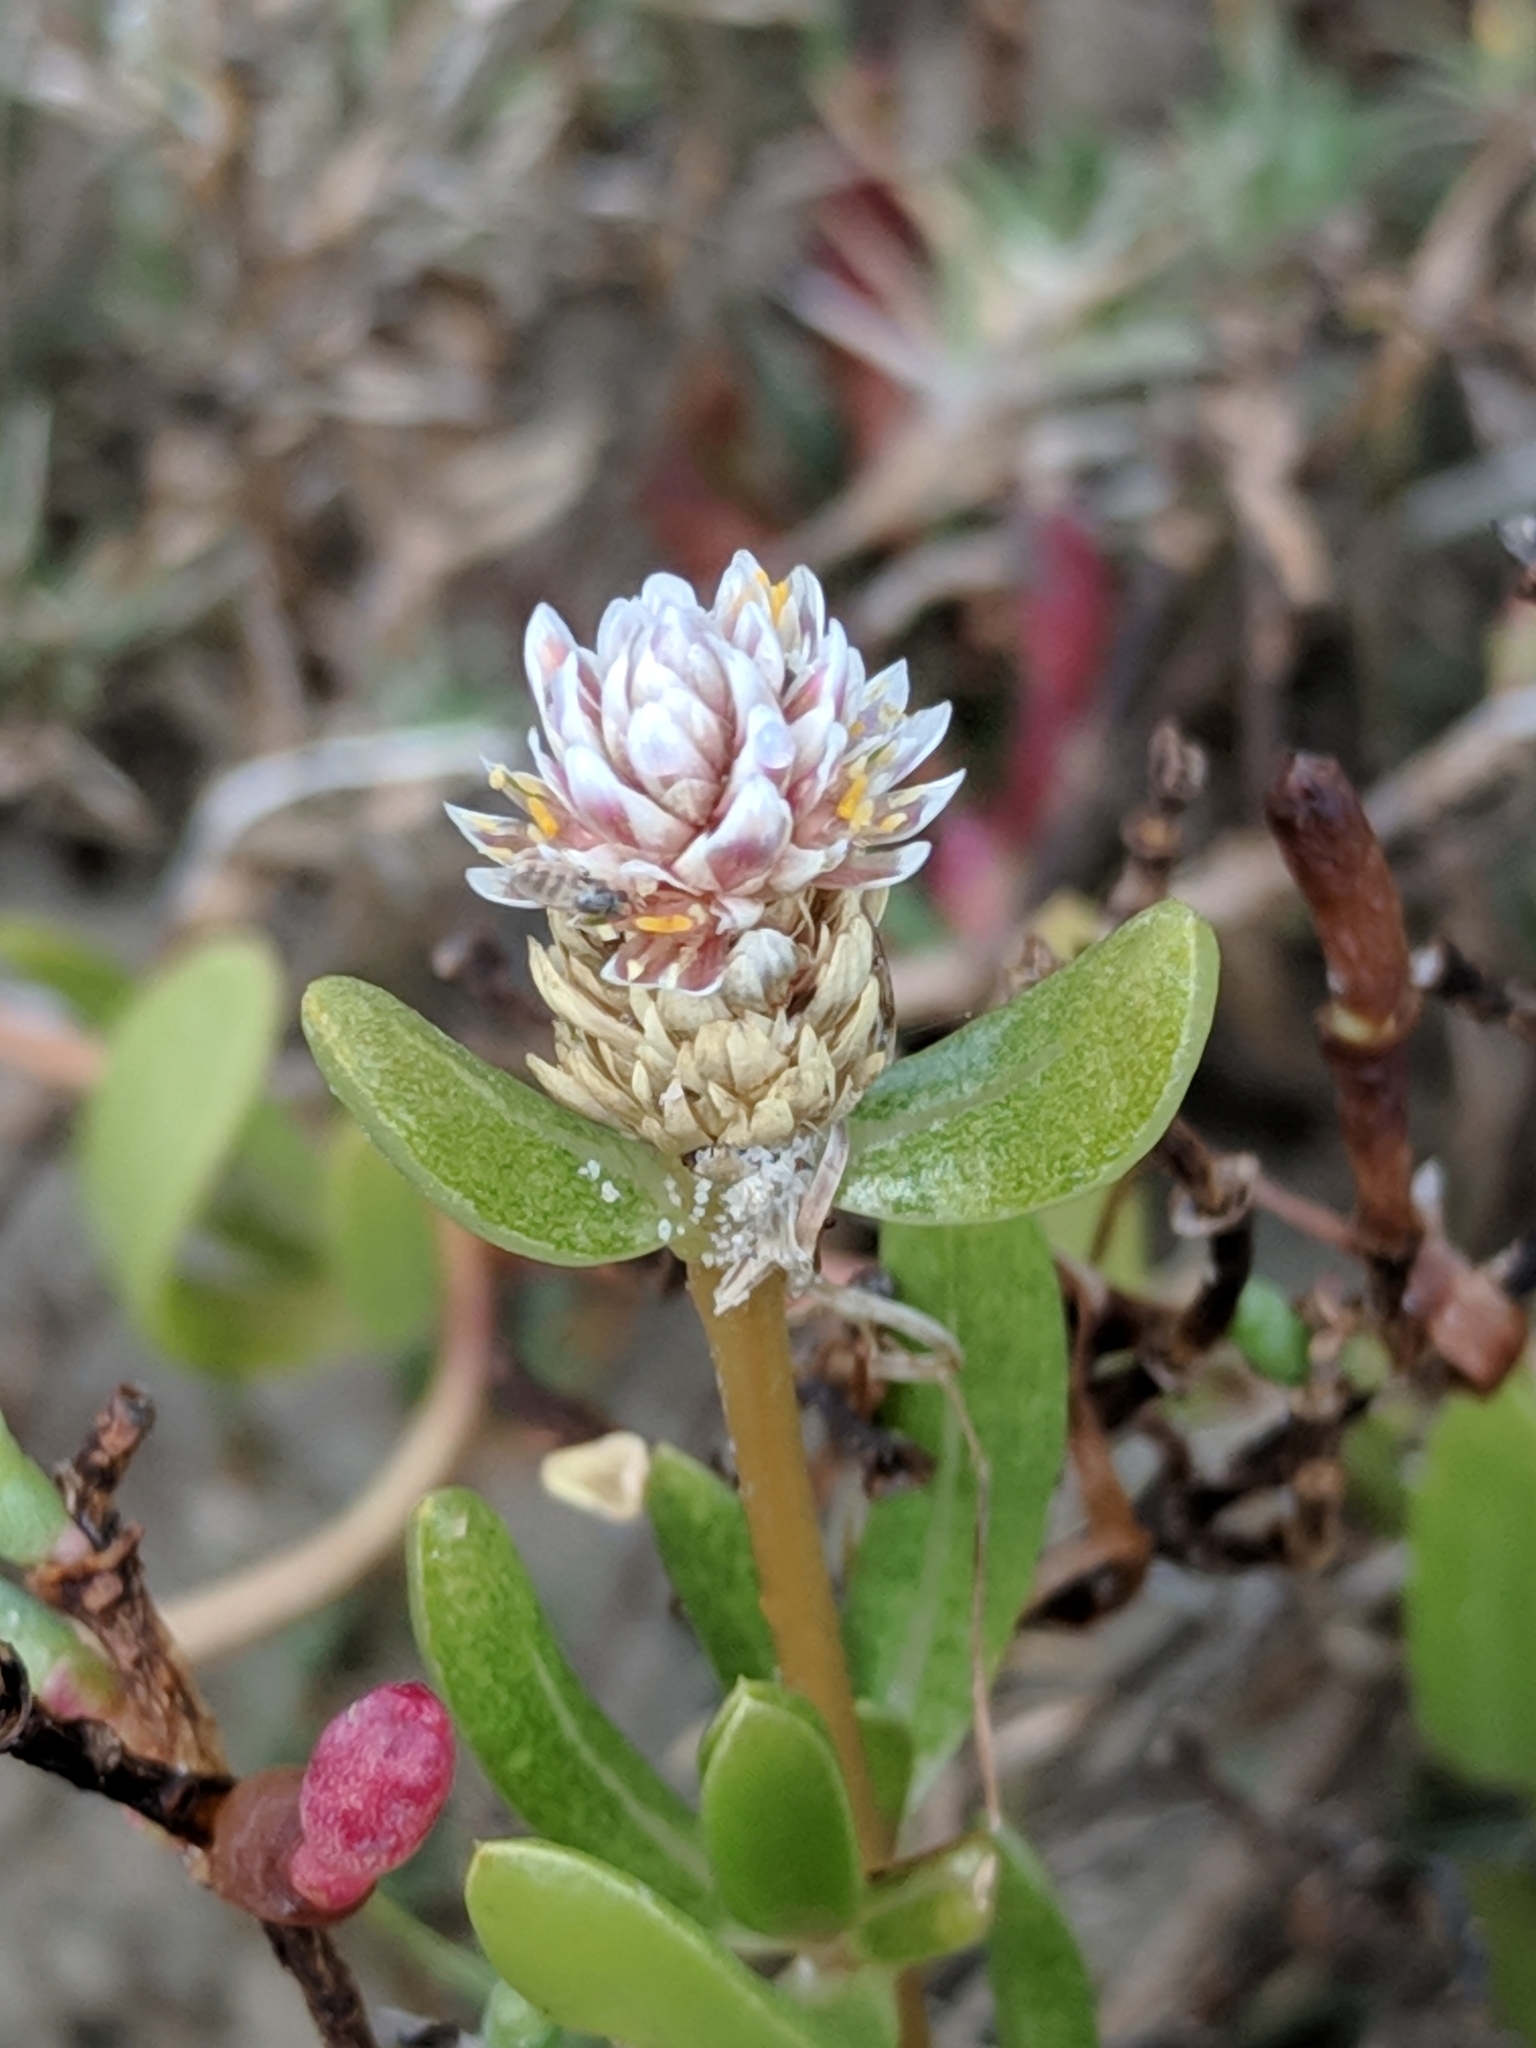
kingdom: Plantae
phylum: Tracheophyta
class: Magnoliopsida
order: Caryophyllales
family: Amaranthaceae
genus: Gomphrena
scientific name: Gomphrena vermicularis
